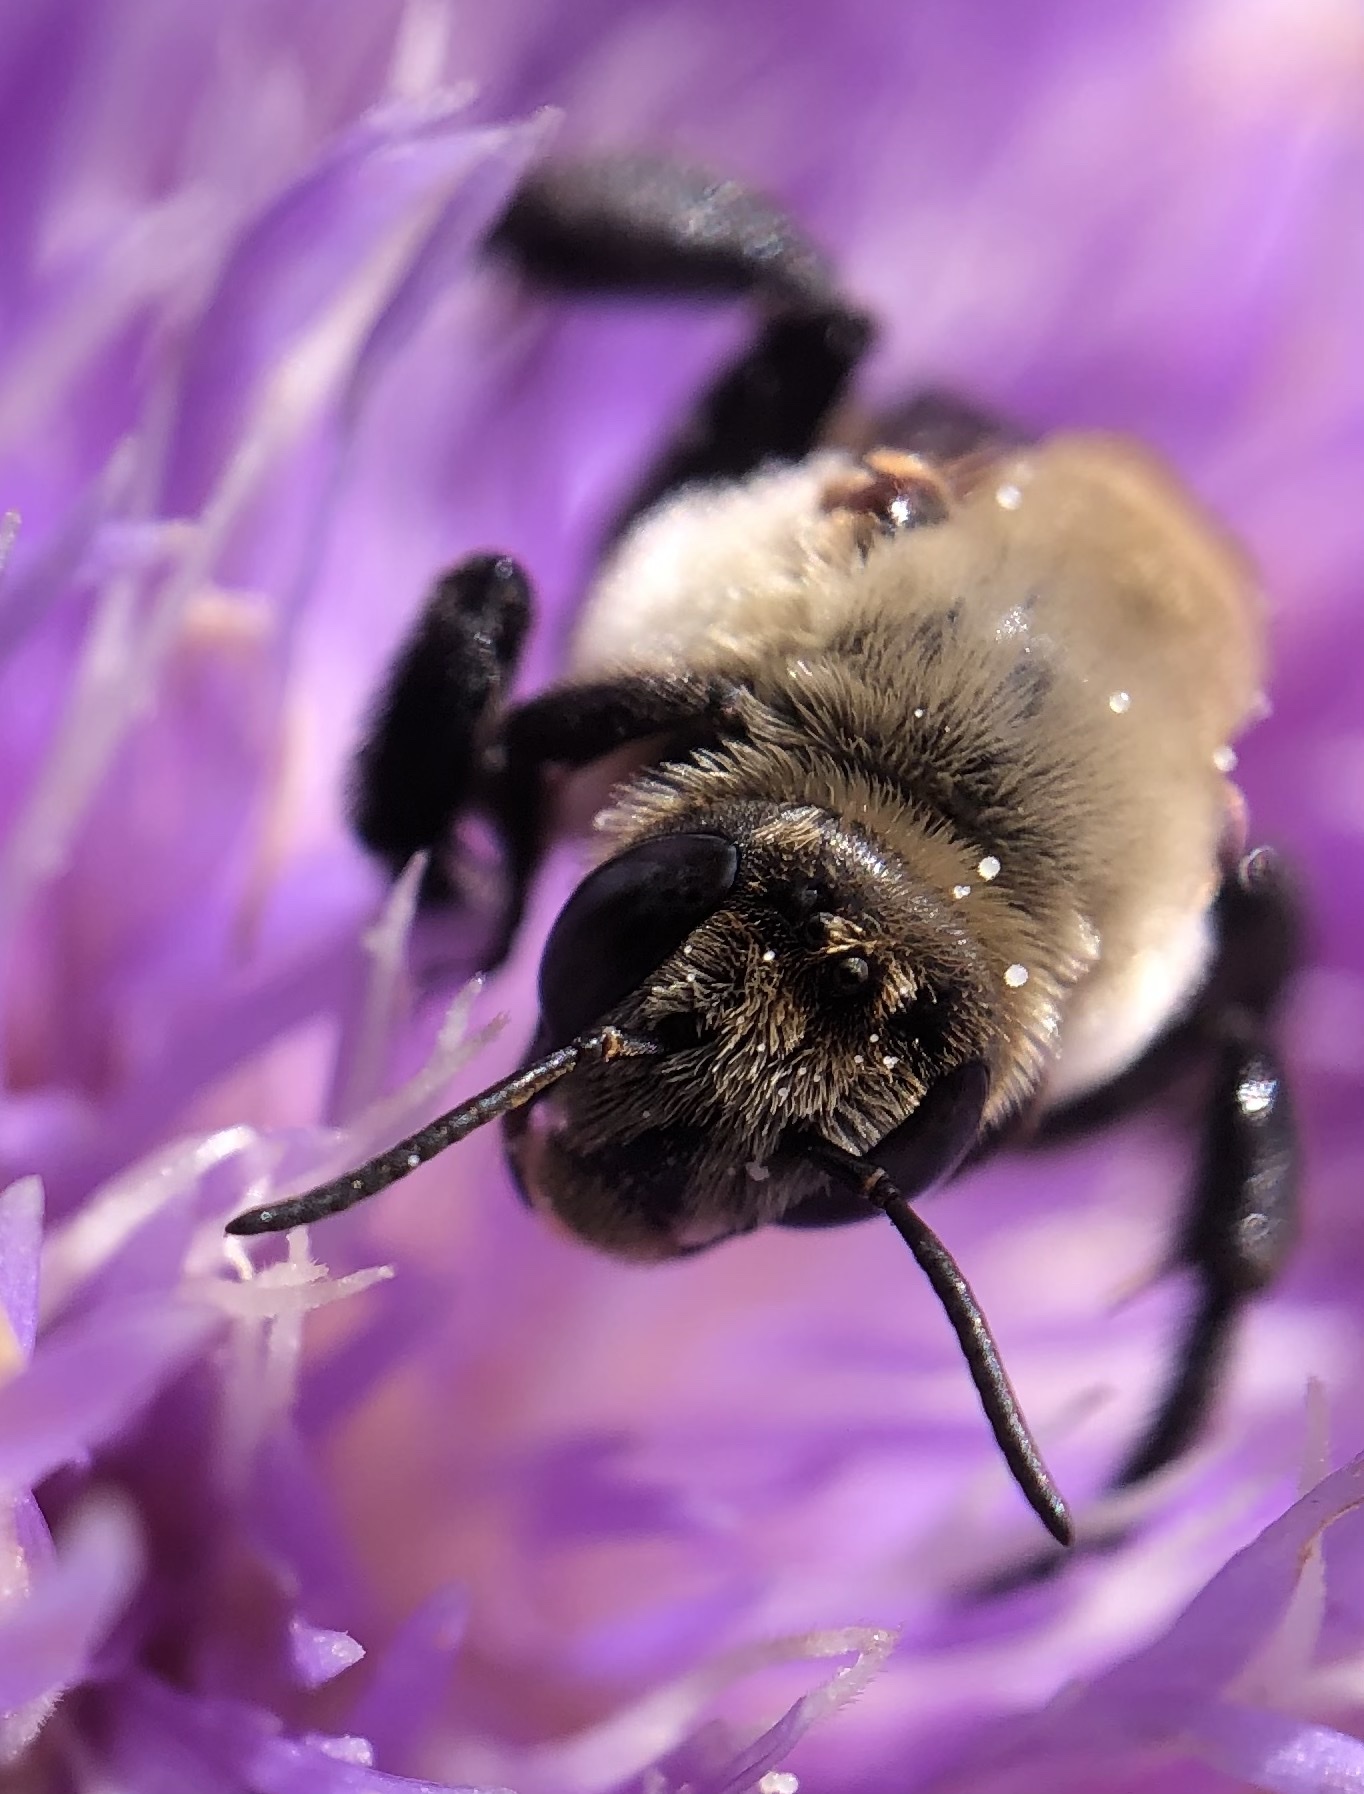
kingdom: Animalia
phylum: Arthropoda
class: Insecta
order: Hymenoptera
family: Apidae
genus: Ptilothrix
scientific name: Ptilothrix bombiformis
